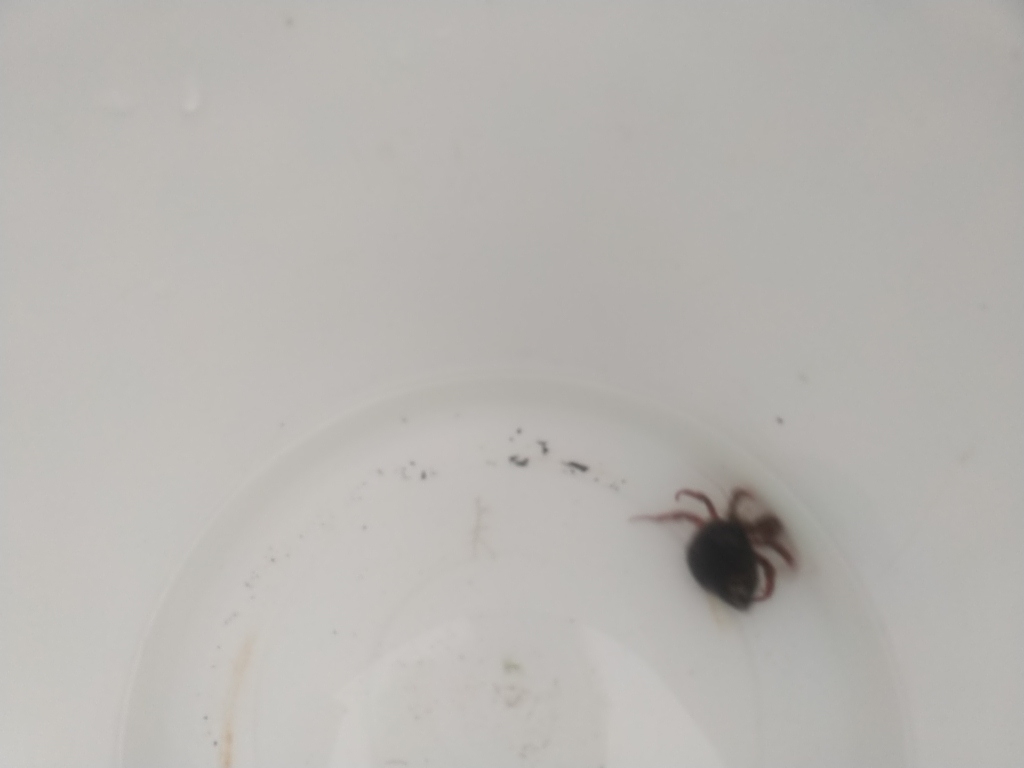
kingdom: Animalia
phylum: Arthropoda
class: Malacostraca
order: Decapoda
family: Paguridae
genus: Pagurus
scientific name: Pagurus acadianus
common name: Acadian hermit crab
